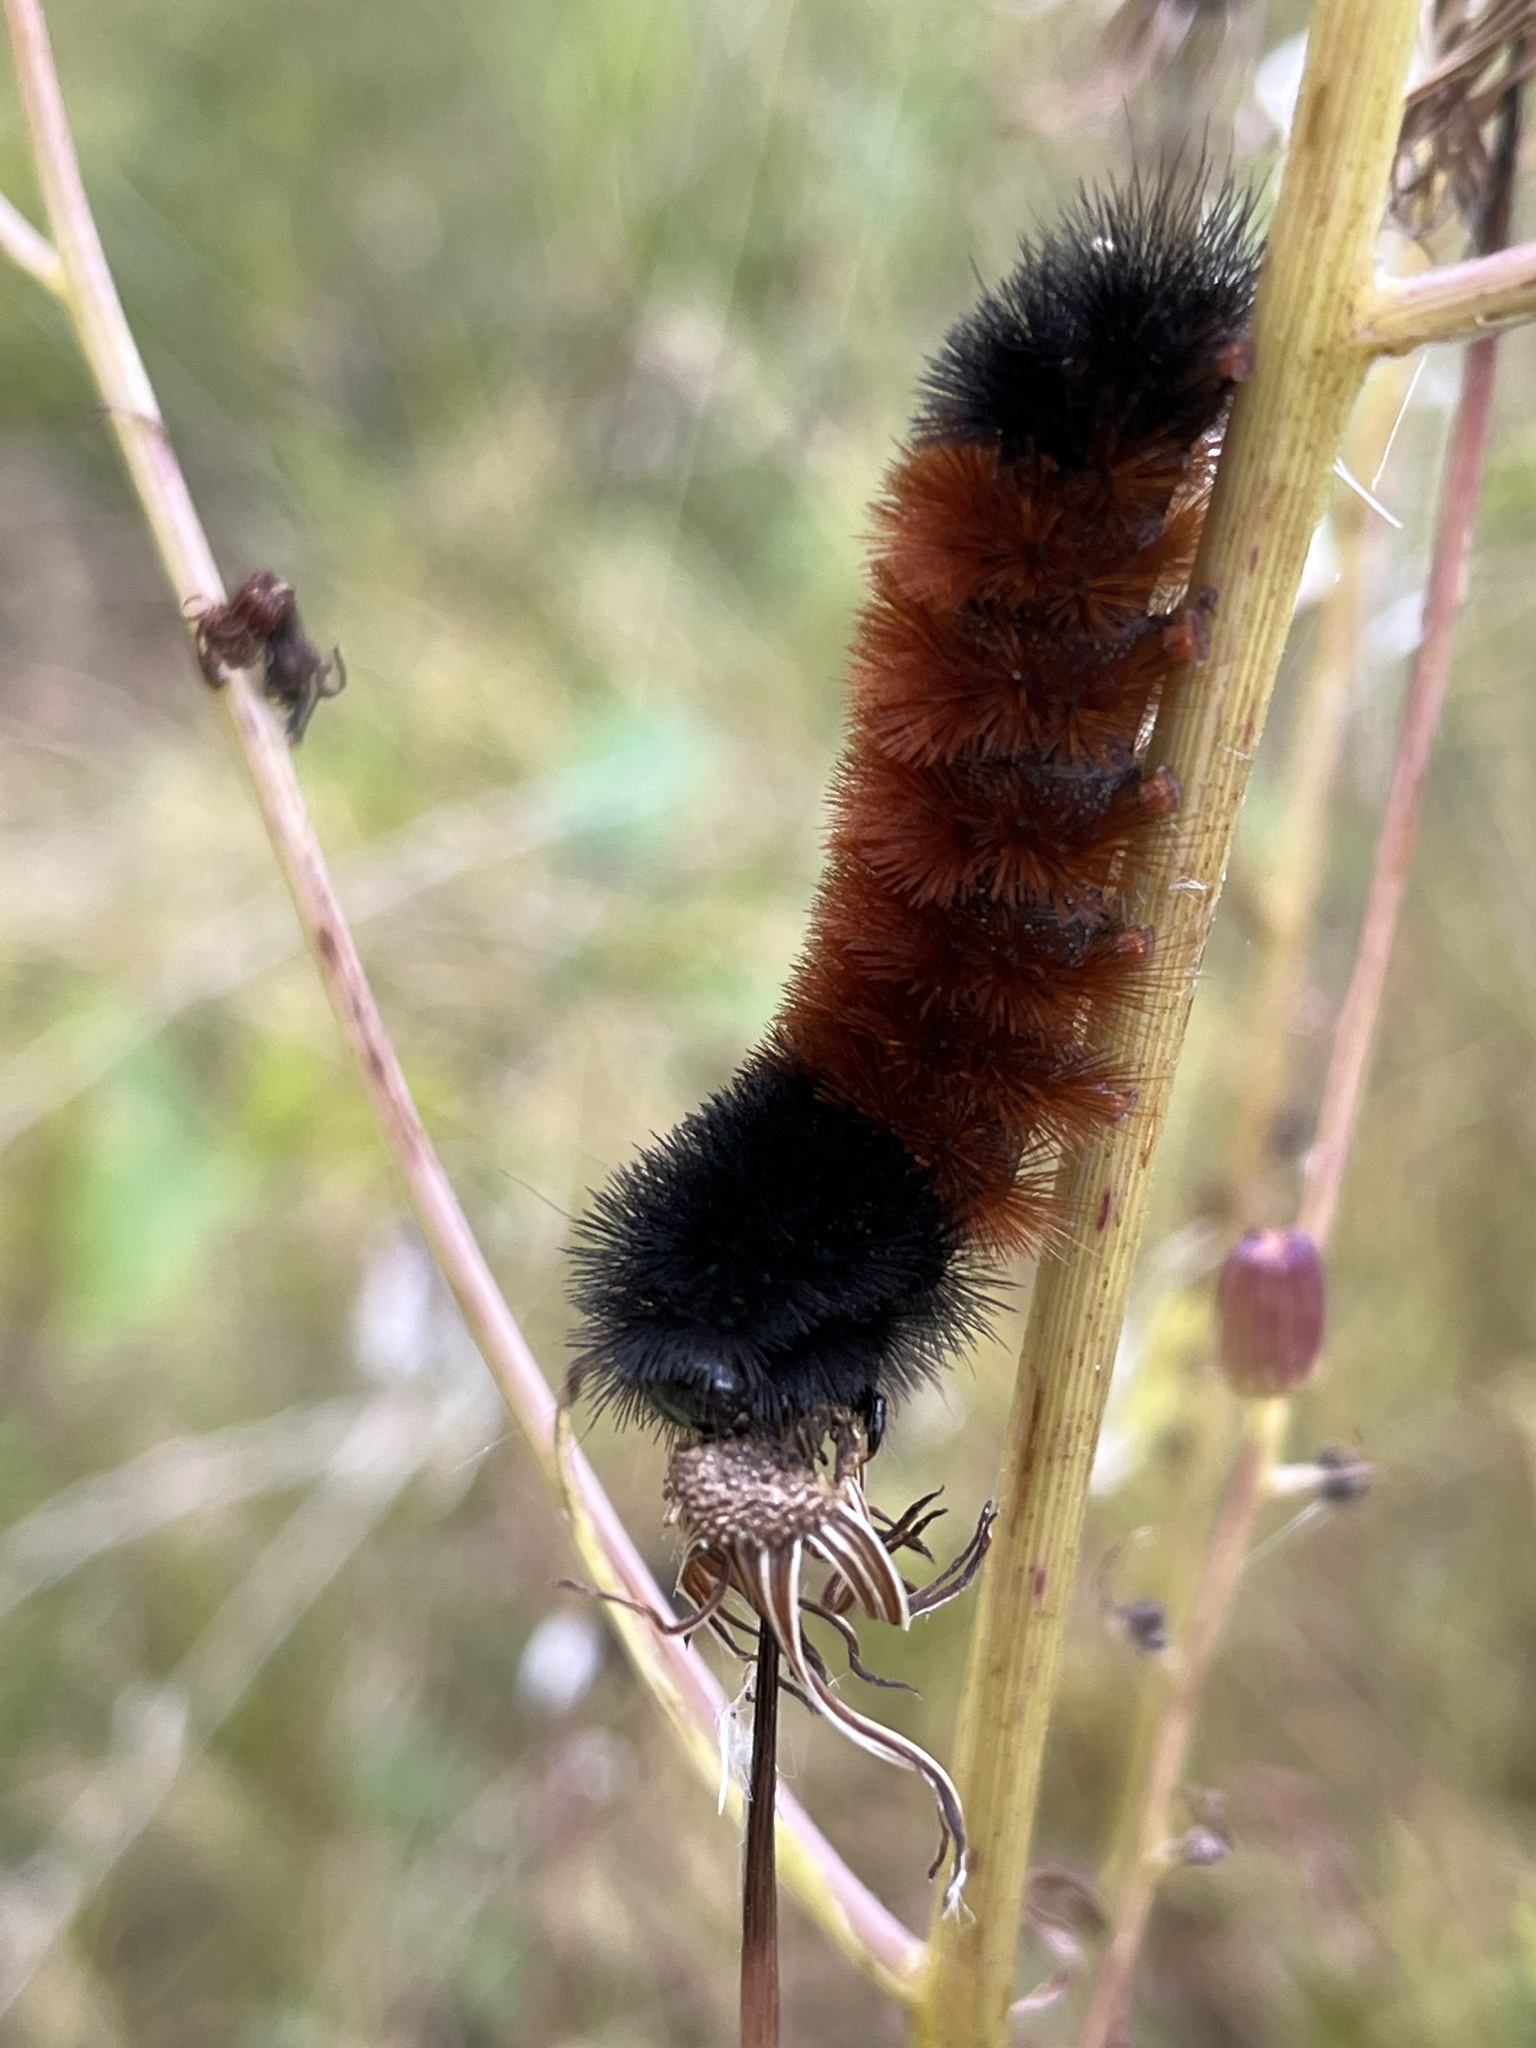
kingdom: Animalia
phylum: Arthropoda
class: Insecta
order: Lepidoptera
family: Erebidae
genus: Pyrrharctia
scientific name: Pyrrharctia isabella
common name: Isabella tiger moth
